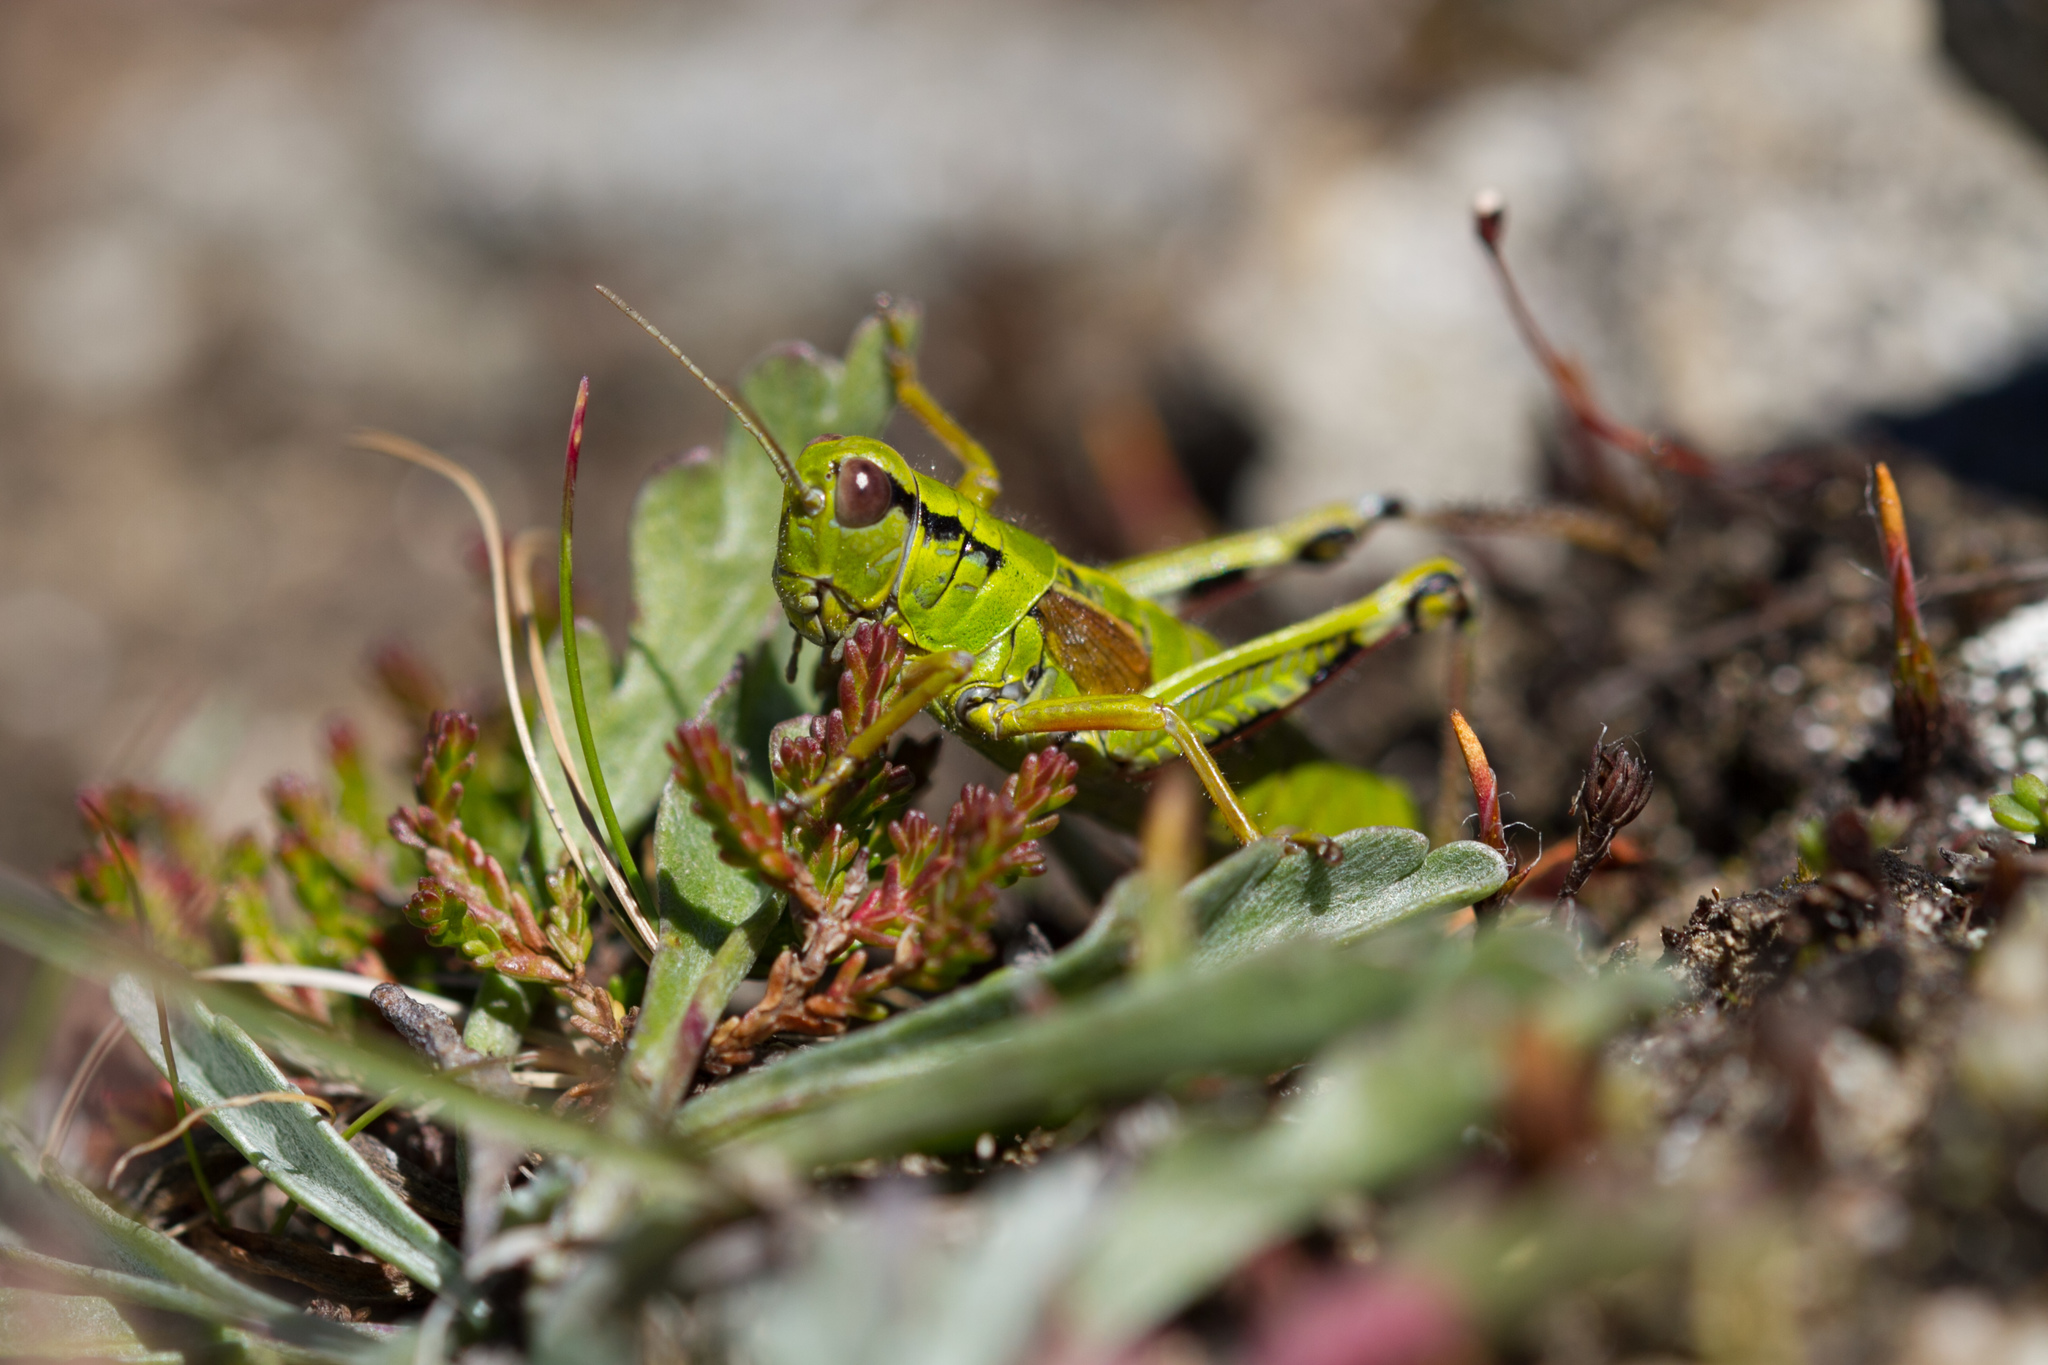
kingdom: Animalia
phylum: Arthropoda
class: Insecta
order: Orthoptera
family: Acrididae
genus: Miramella
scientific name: Miramella alpina
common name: Green mountain grasshopper
